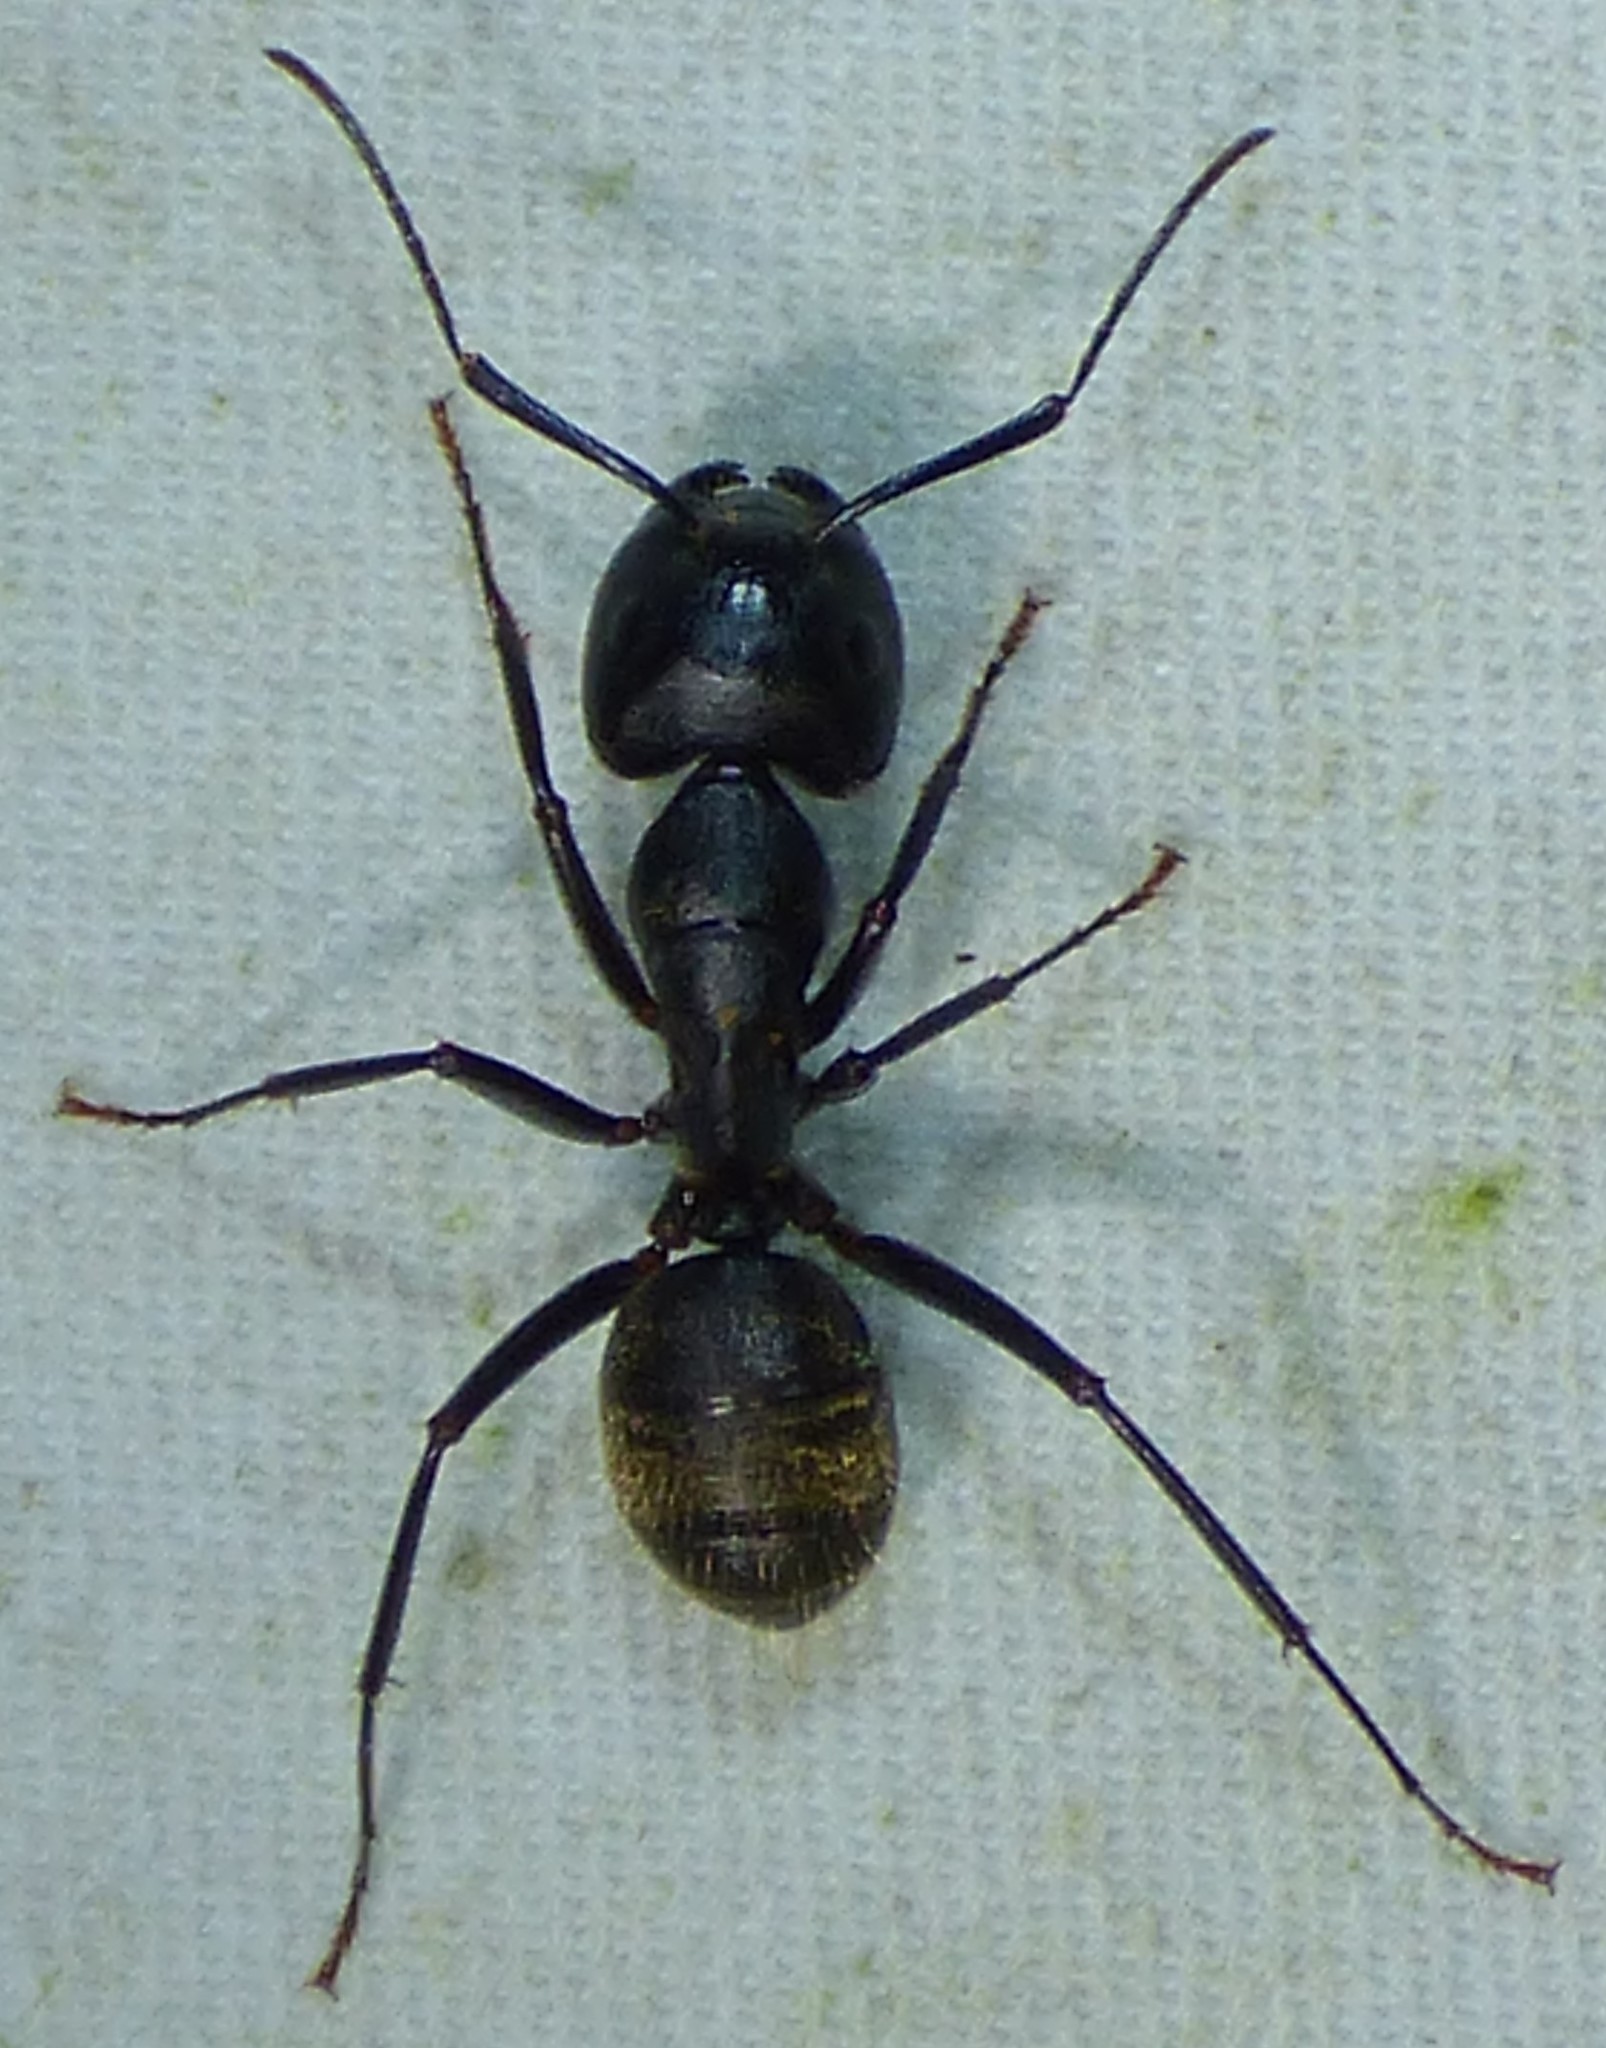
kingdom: Animalia
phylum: Arthropoda
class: Insecta
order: Hymenoptera
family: Formicidae
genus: Camponotus
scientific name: Camponotus pennsylvanicus
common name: Black carpenter ant
